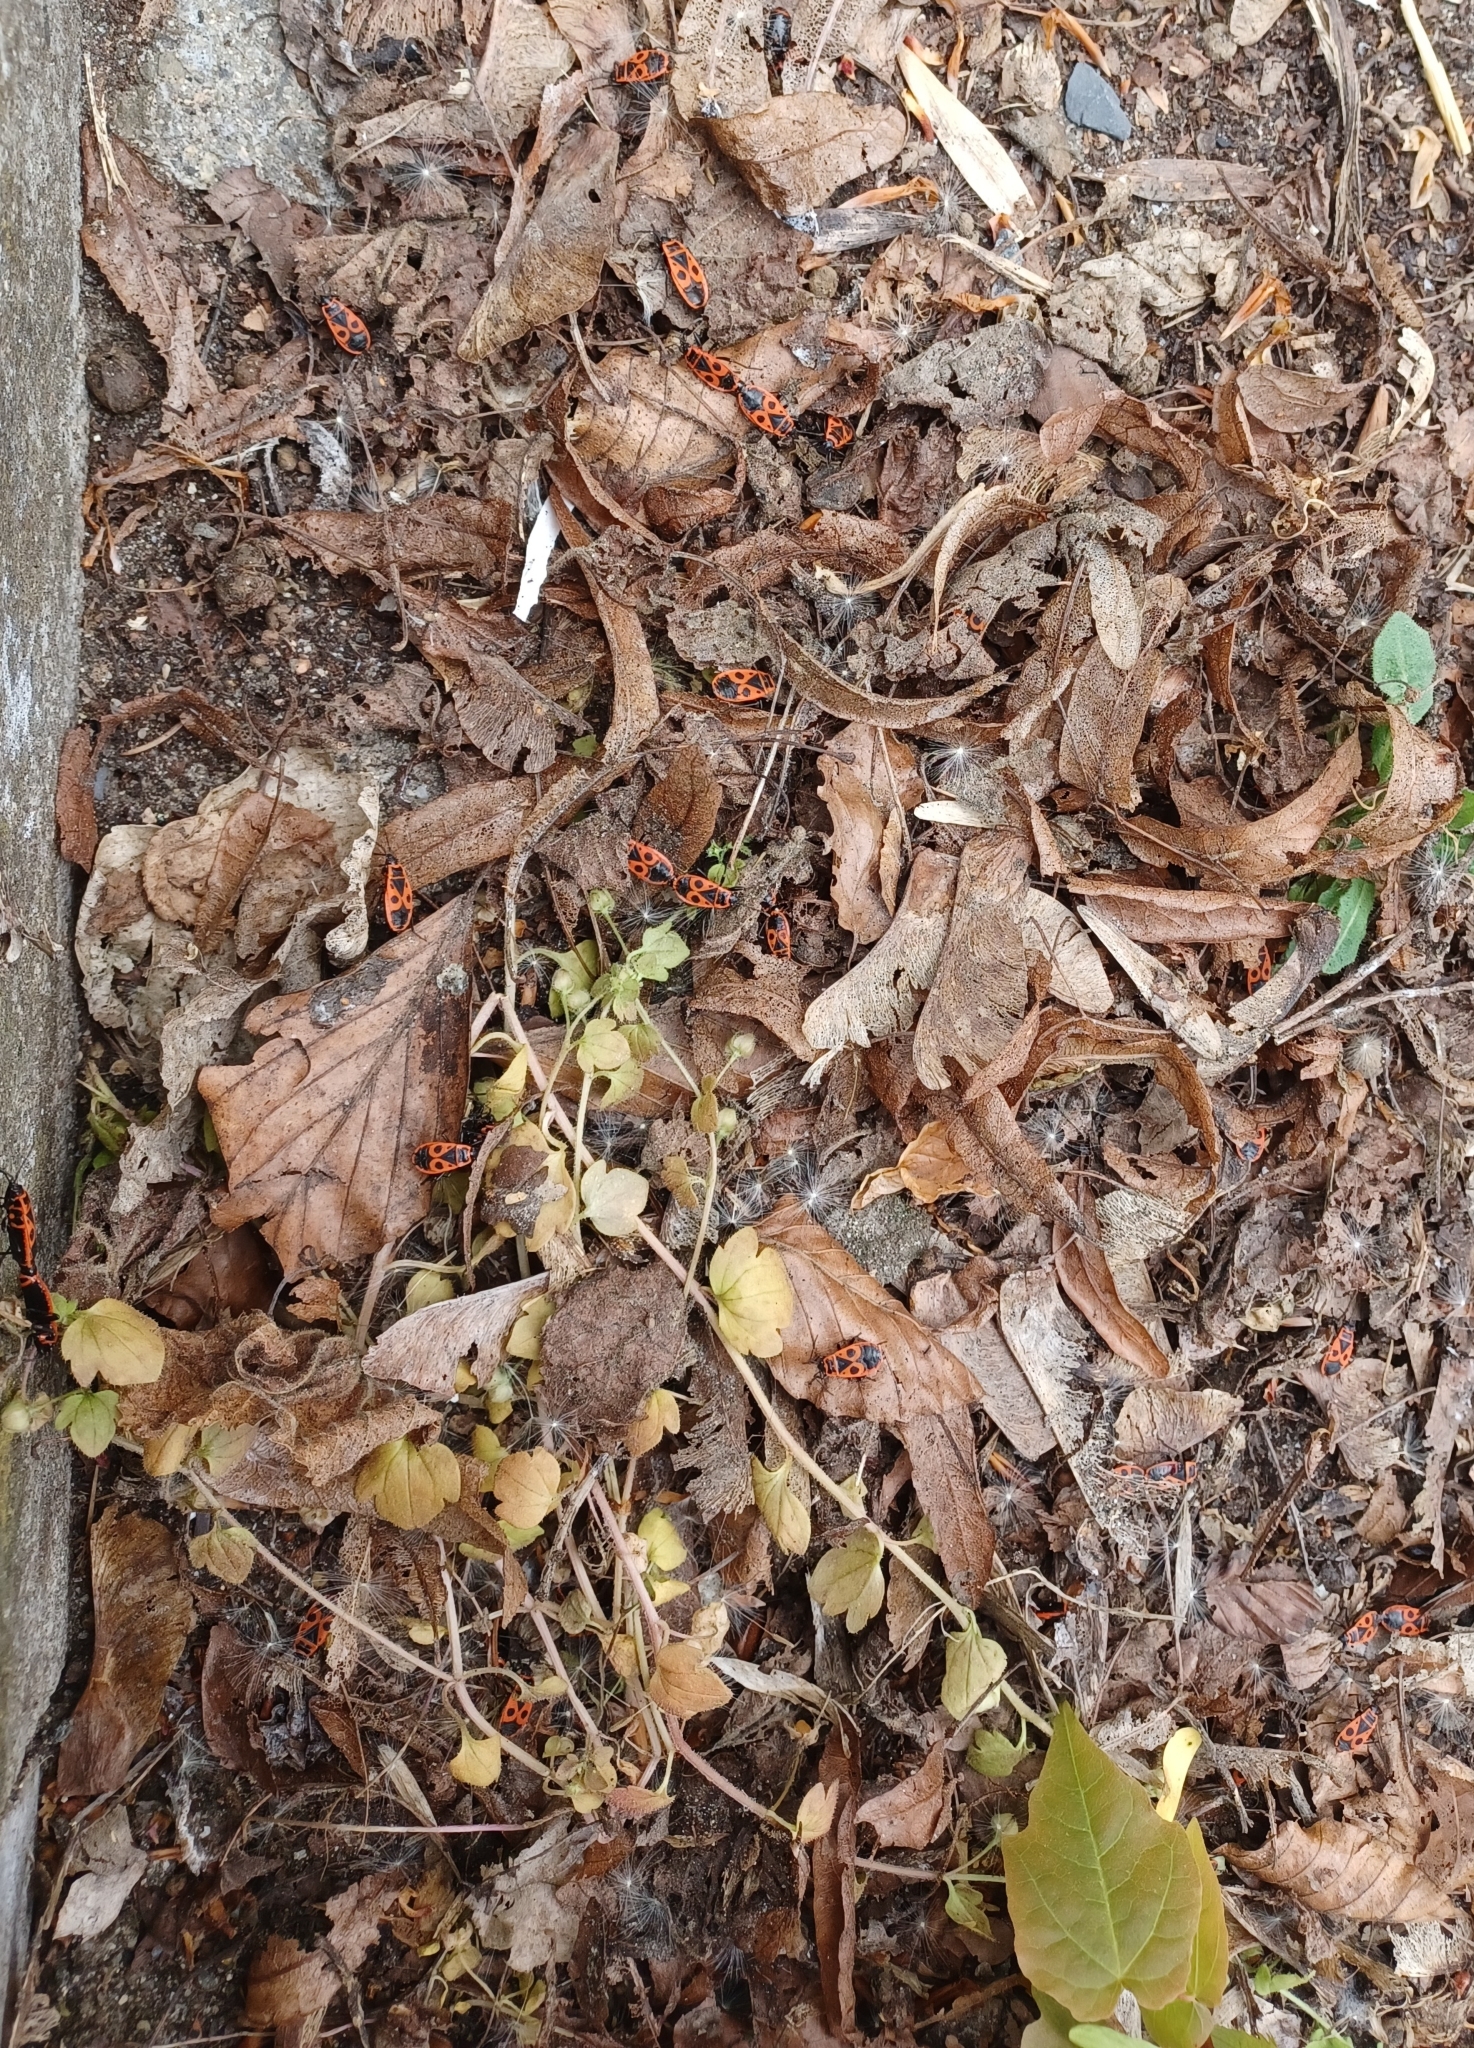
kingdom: Animalia
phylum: Arthropoda
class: Insecta
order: Hemiptera
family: Pyrrhocoridae
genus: Pyrrhocoris
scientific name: Pyrrhocoris apterus
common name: Firebug
